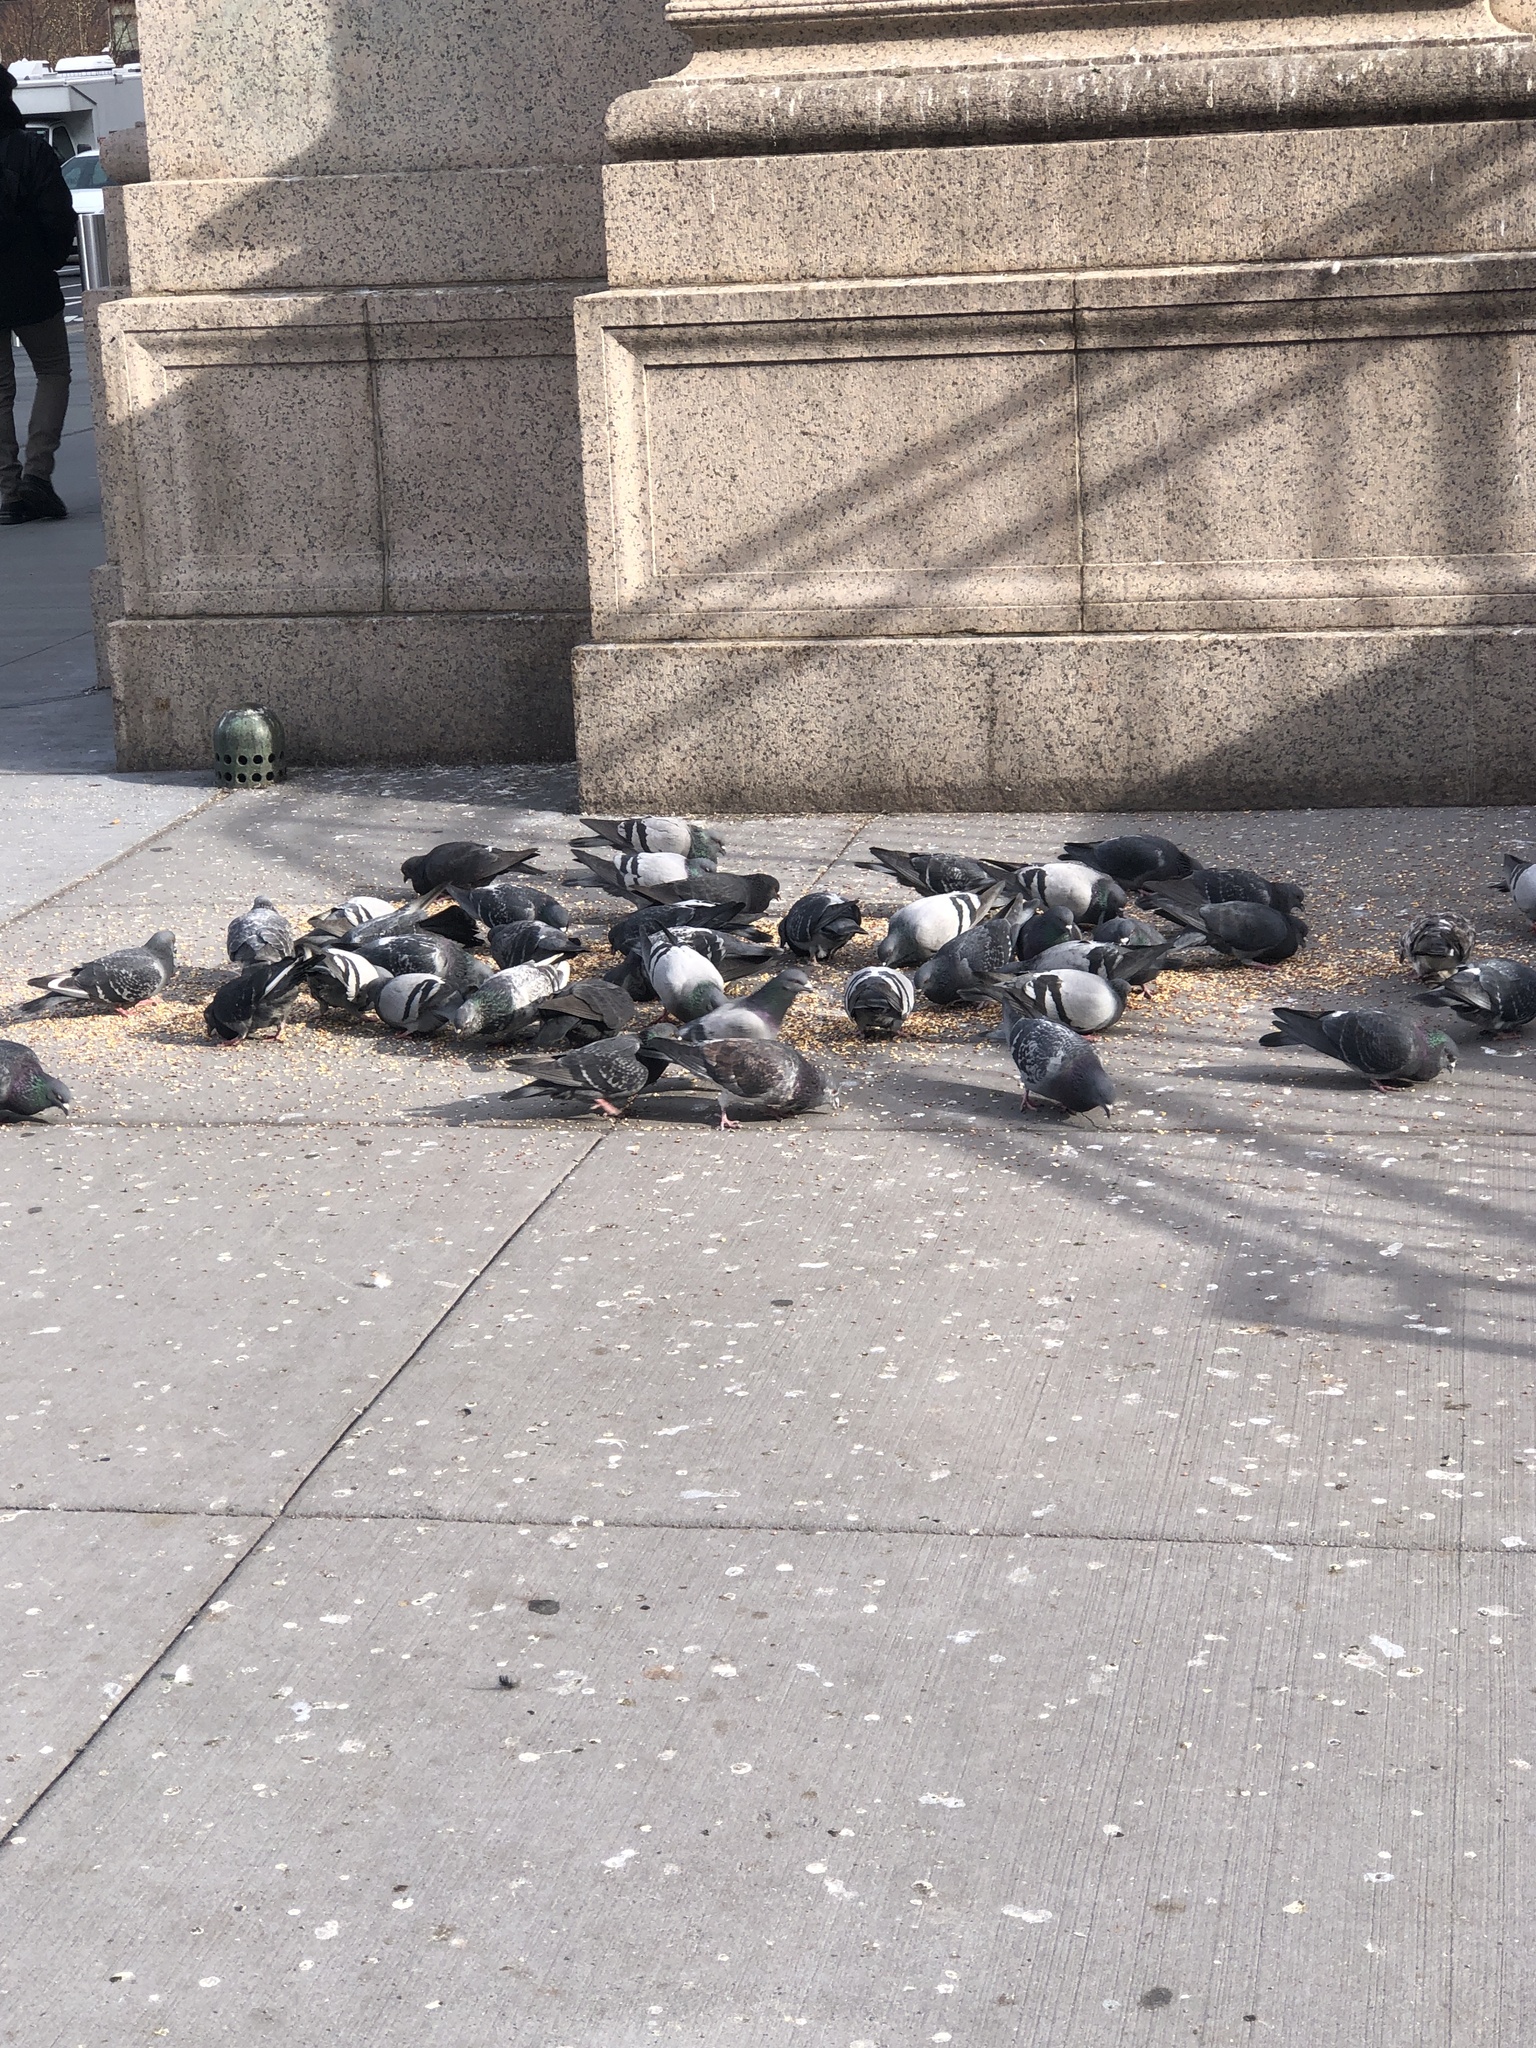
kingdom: Animalia
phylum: Chordata
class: Aves
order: Columbiformes
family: Columbidae
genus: Columba
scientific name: Columba livia
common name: Rock pigeon
